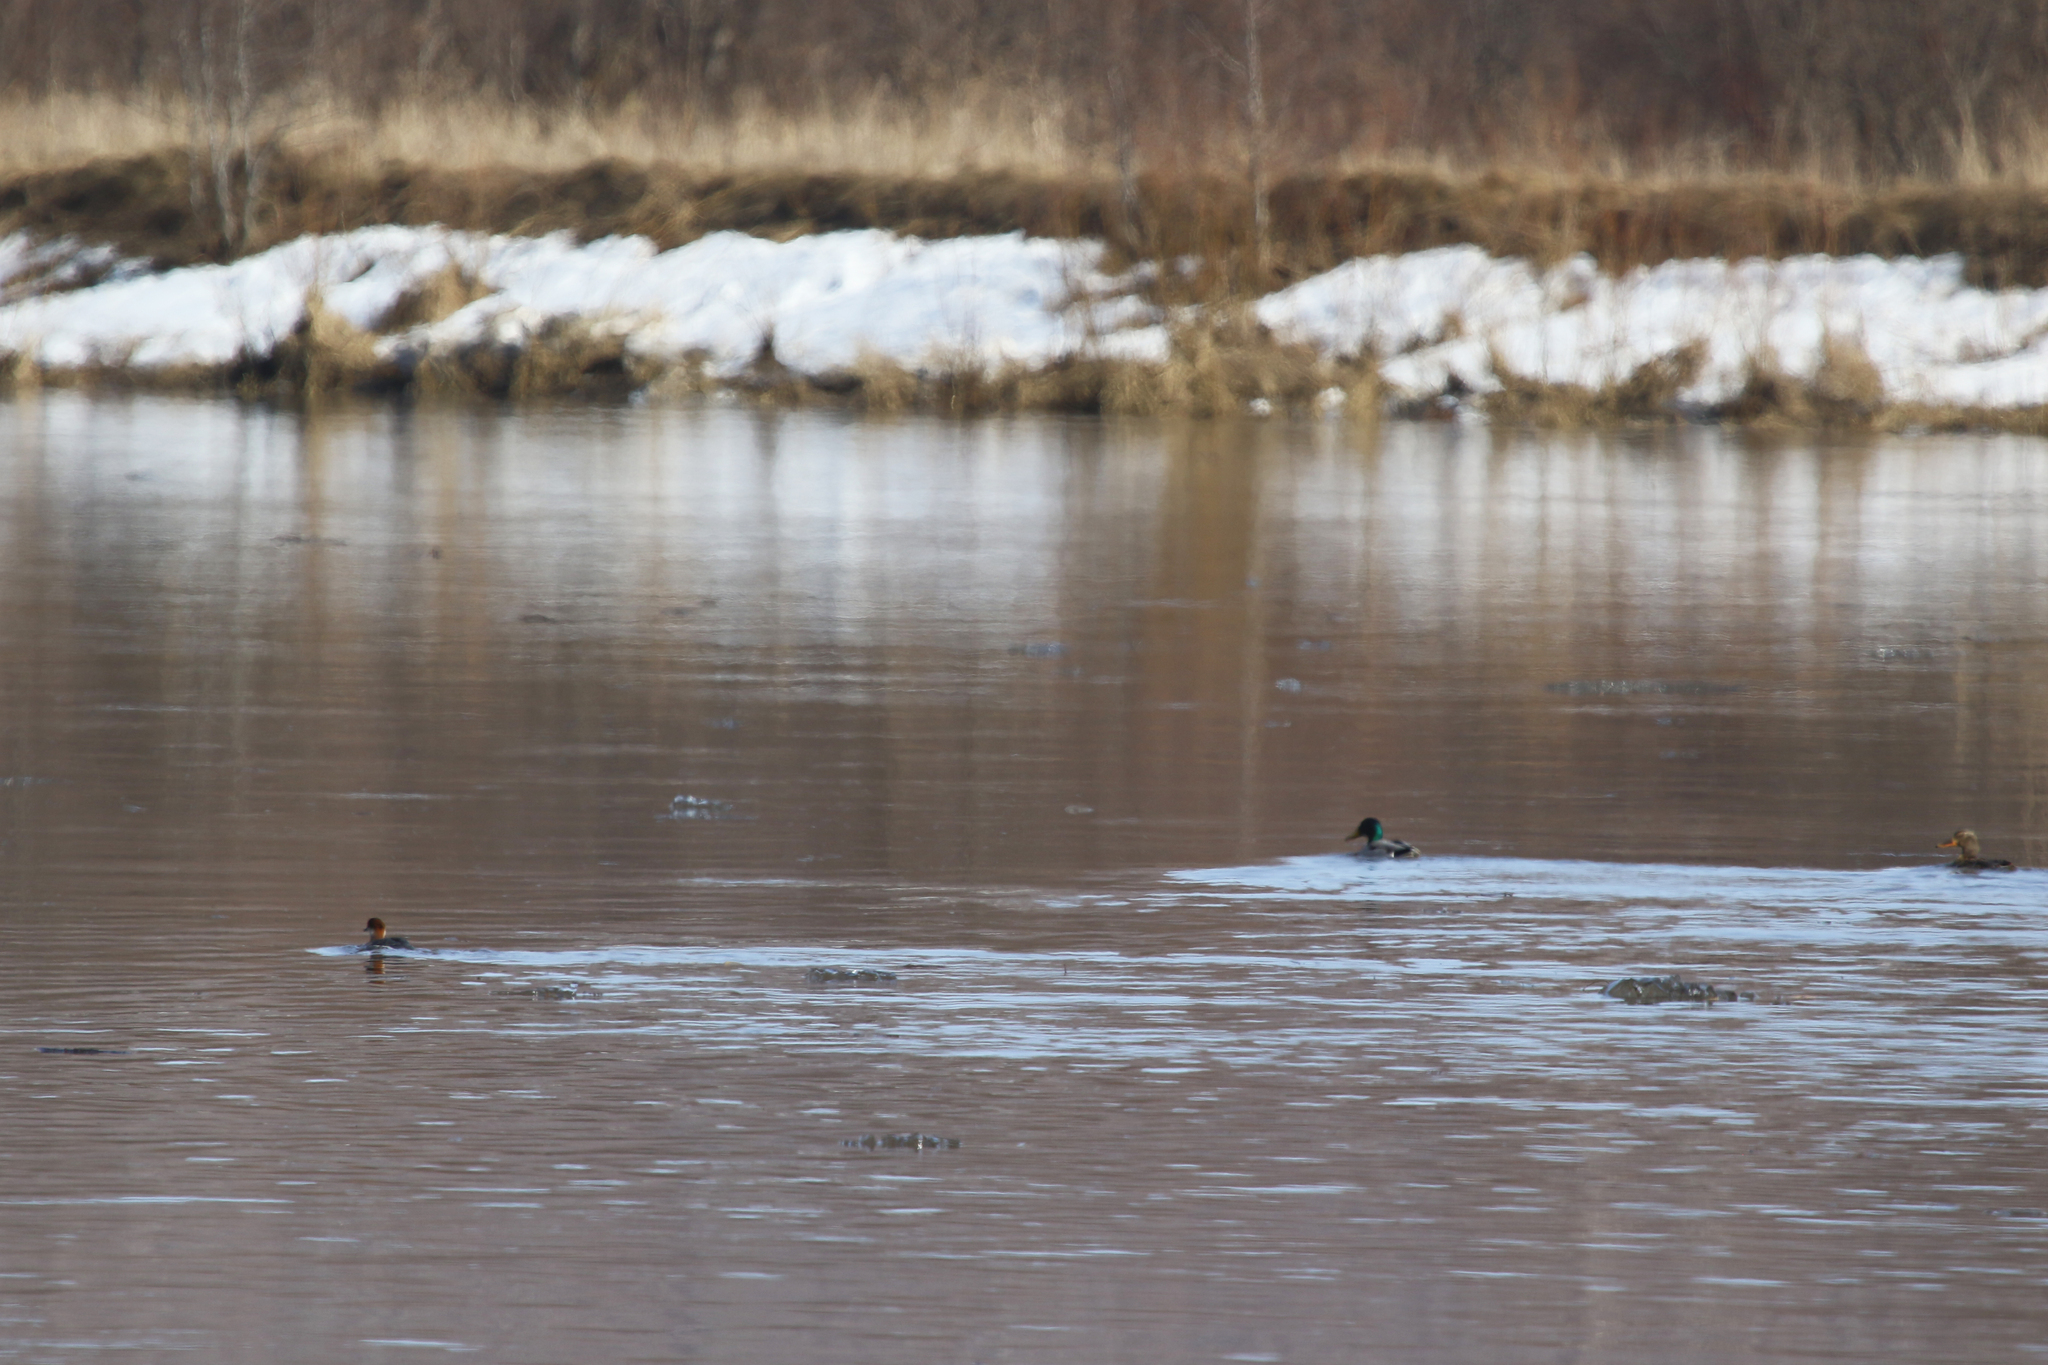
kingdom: Animalia
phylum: Chordata
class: Aves
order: Anseriformes
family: Anatidae
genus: Mergellus
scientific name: Mergellus albellus
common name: Smew
